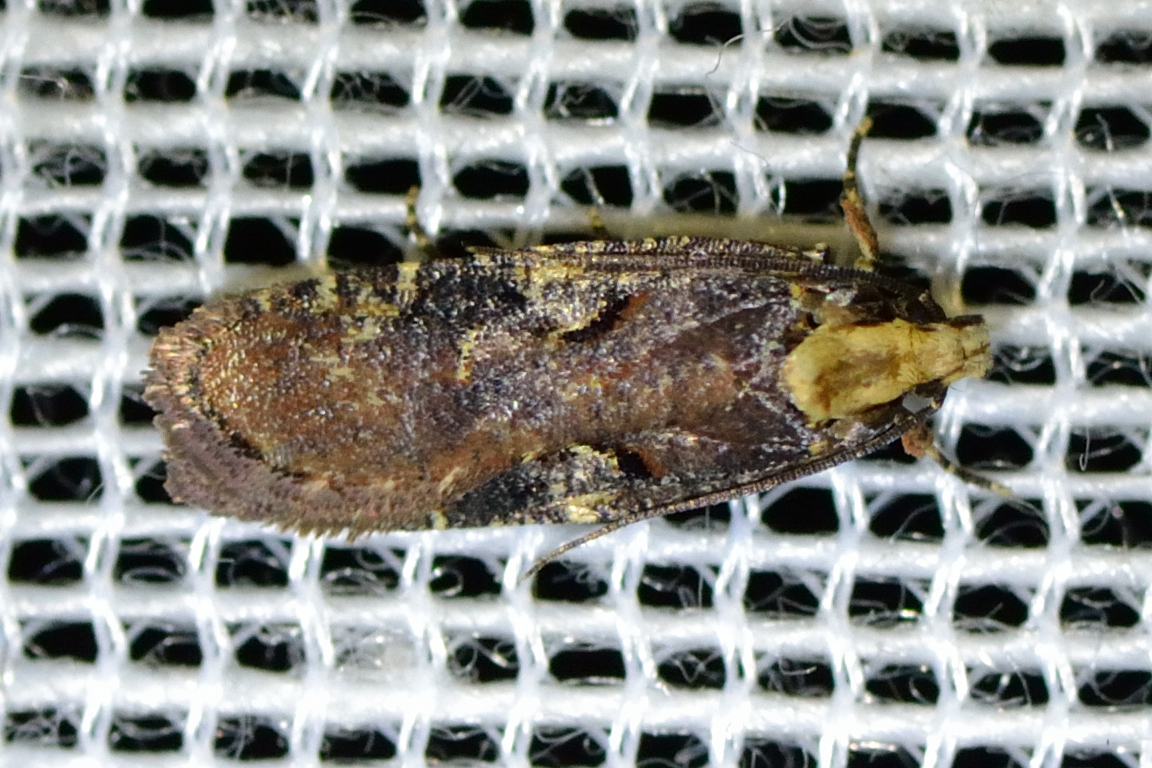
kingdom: Animalia
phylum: Arthropoda
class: Insecta
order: Lepidoptera
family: Depressariidae
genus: Agonopterix
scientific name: Agonopterix liturosa
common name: Large purple flat-body
